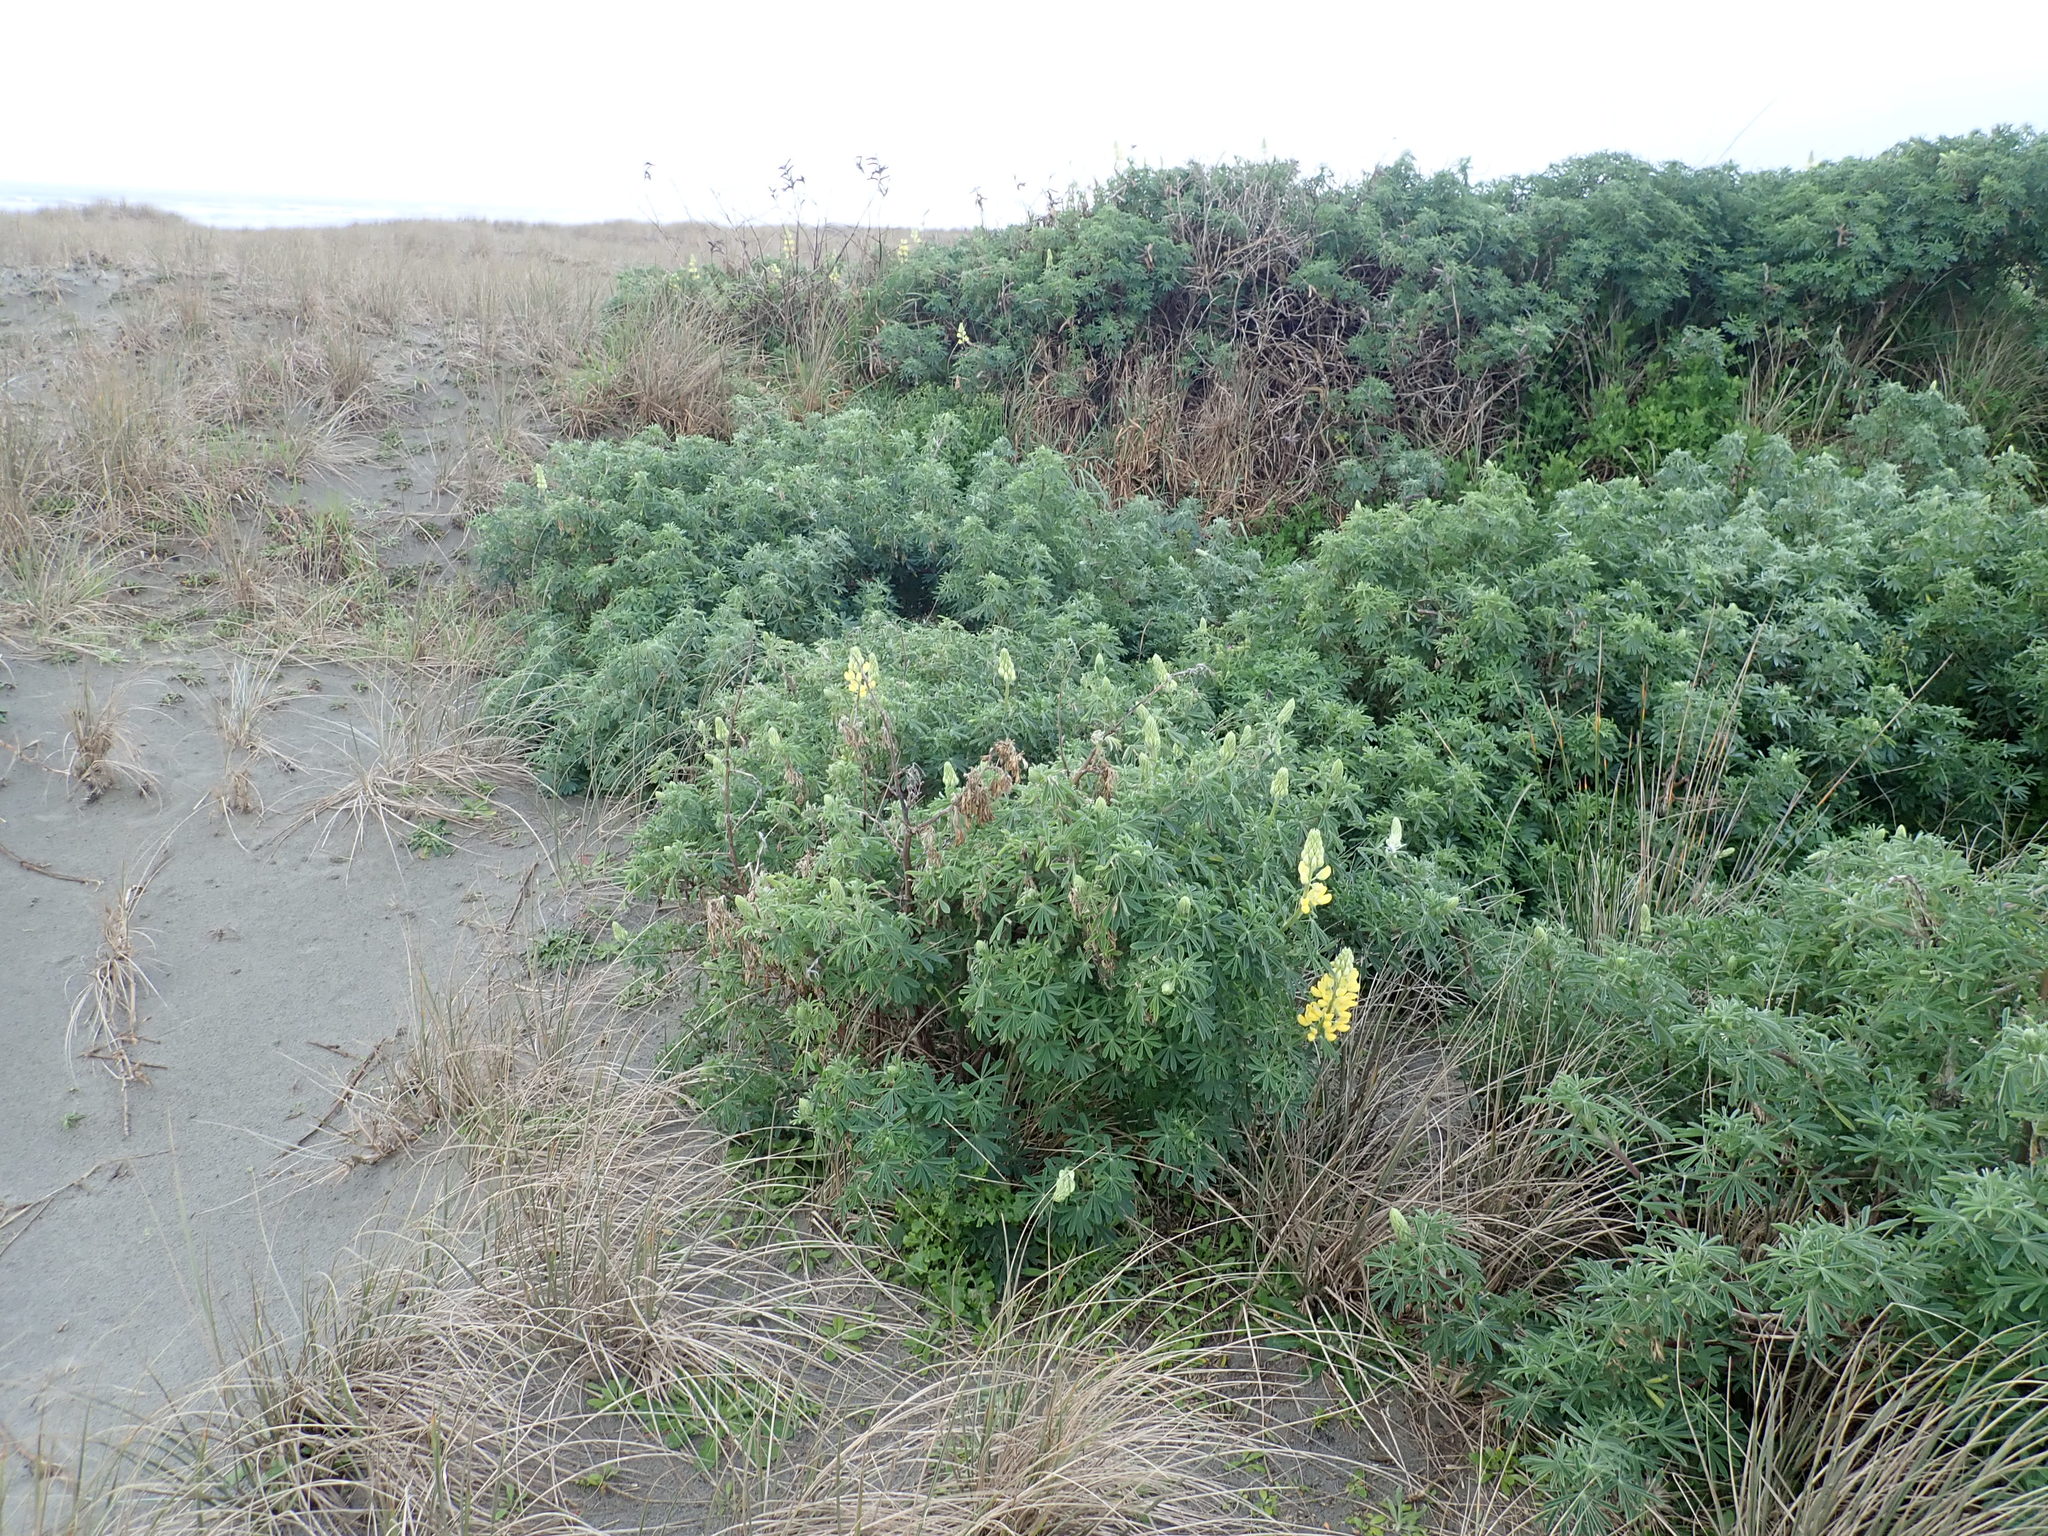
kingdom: Plantae
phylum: Tracheophyta
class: Magnoliopsida
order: Fabales
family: Fabaceae
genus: Lupinus
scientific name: Lupinus arboreus
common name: Yellow bush lupine
